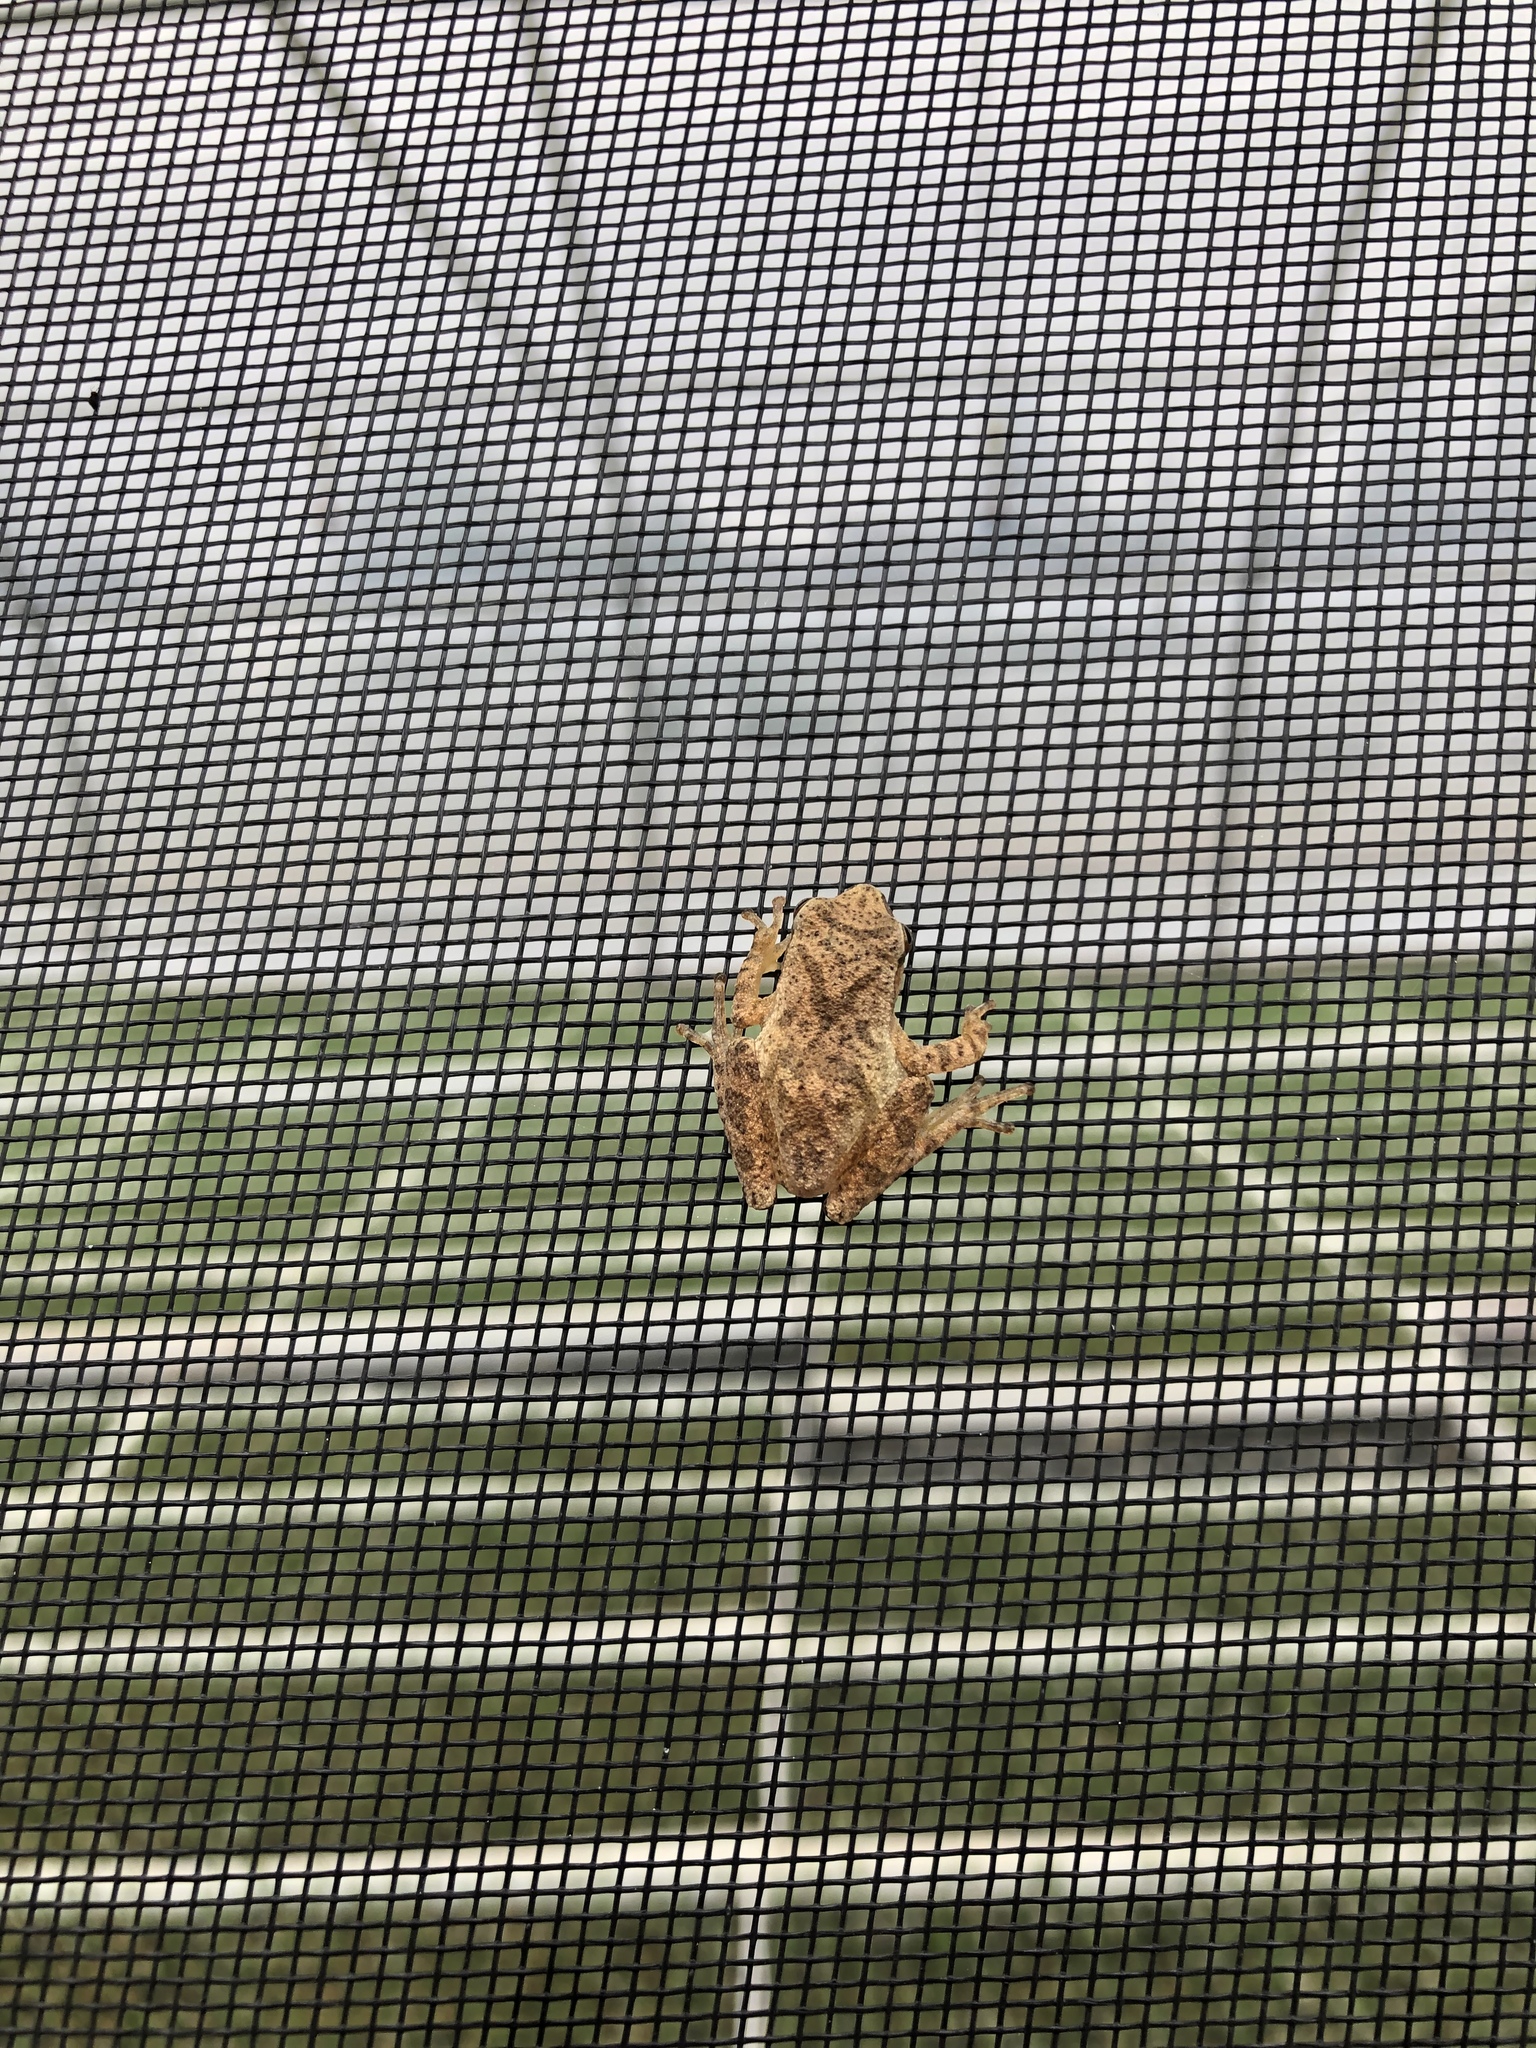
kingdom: Animalia
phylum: Chordata
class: Amphibia
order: Anura
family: Hylidae
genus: Pseudacris
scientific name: Pseudacris crucifer
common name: Spring peeper
